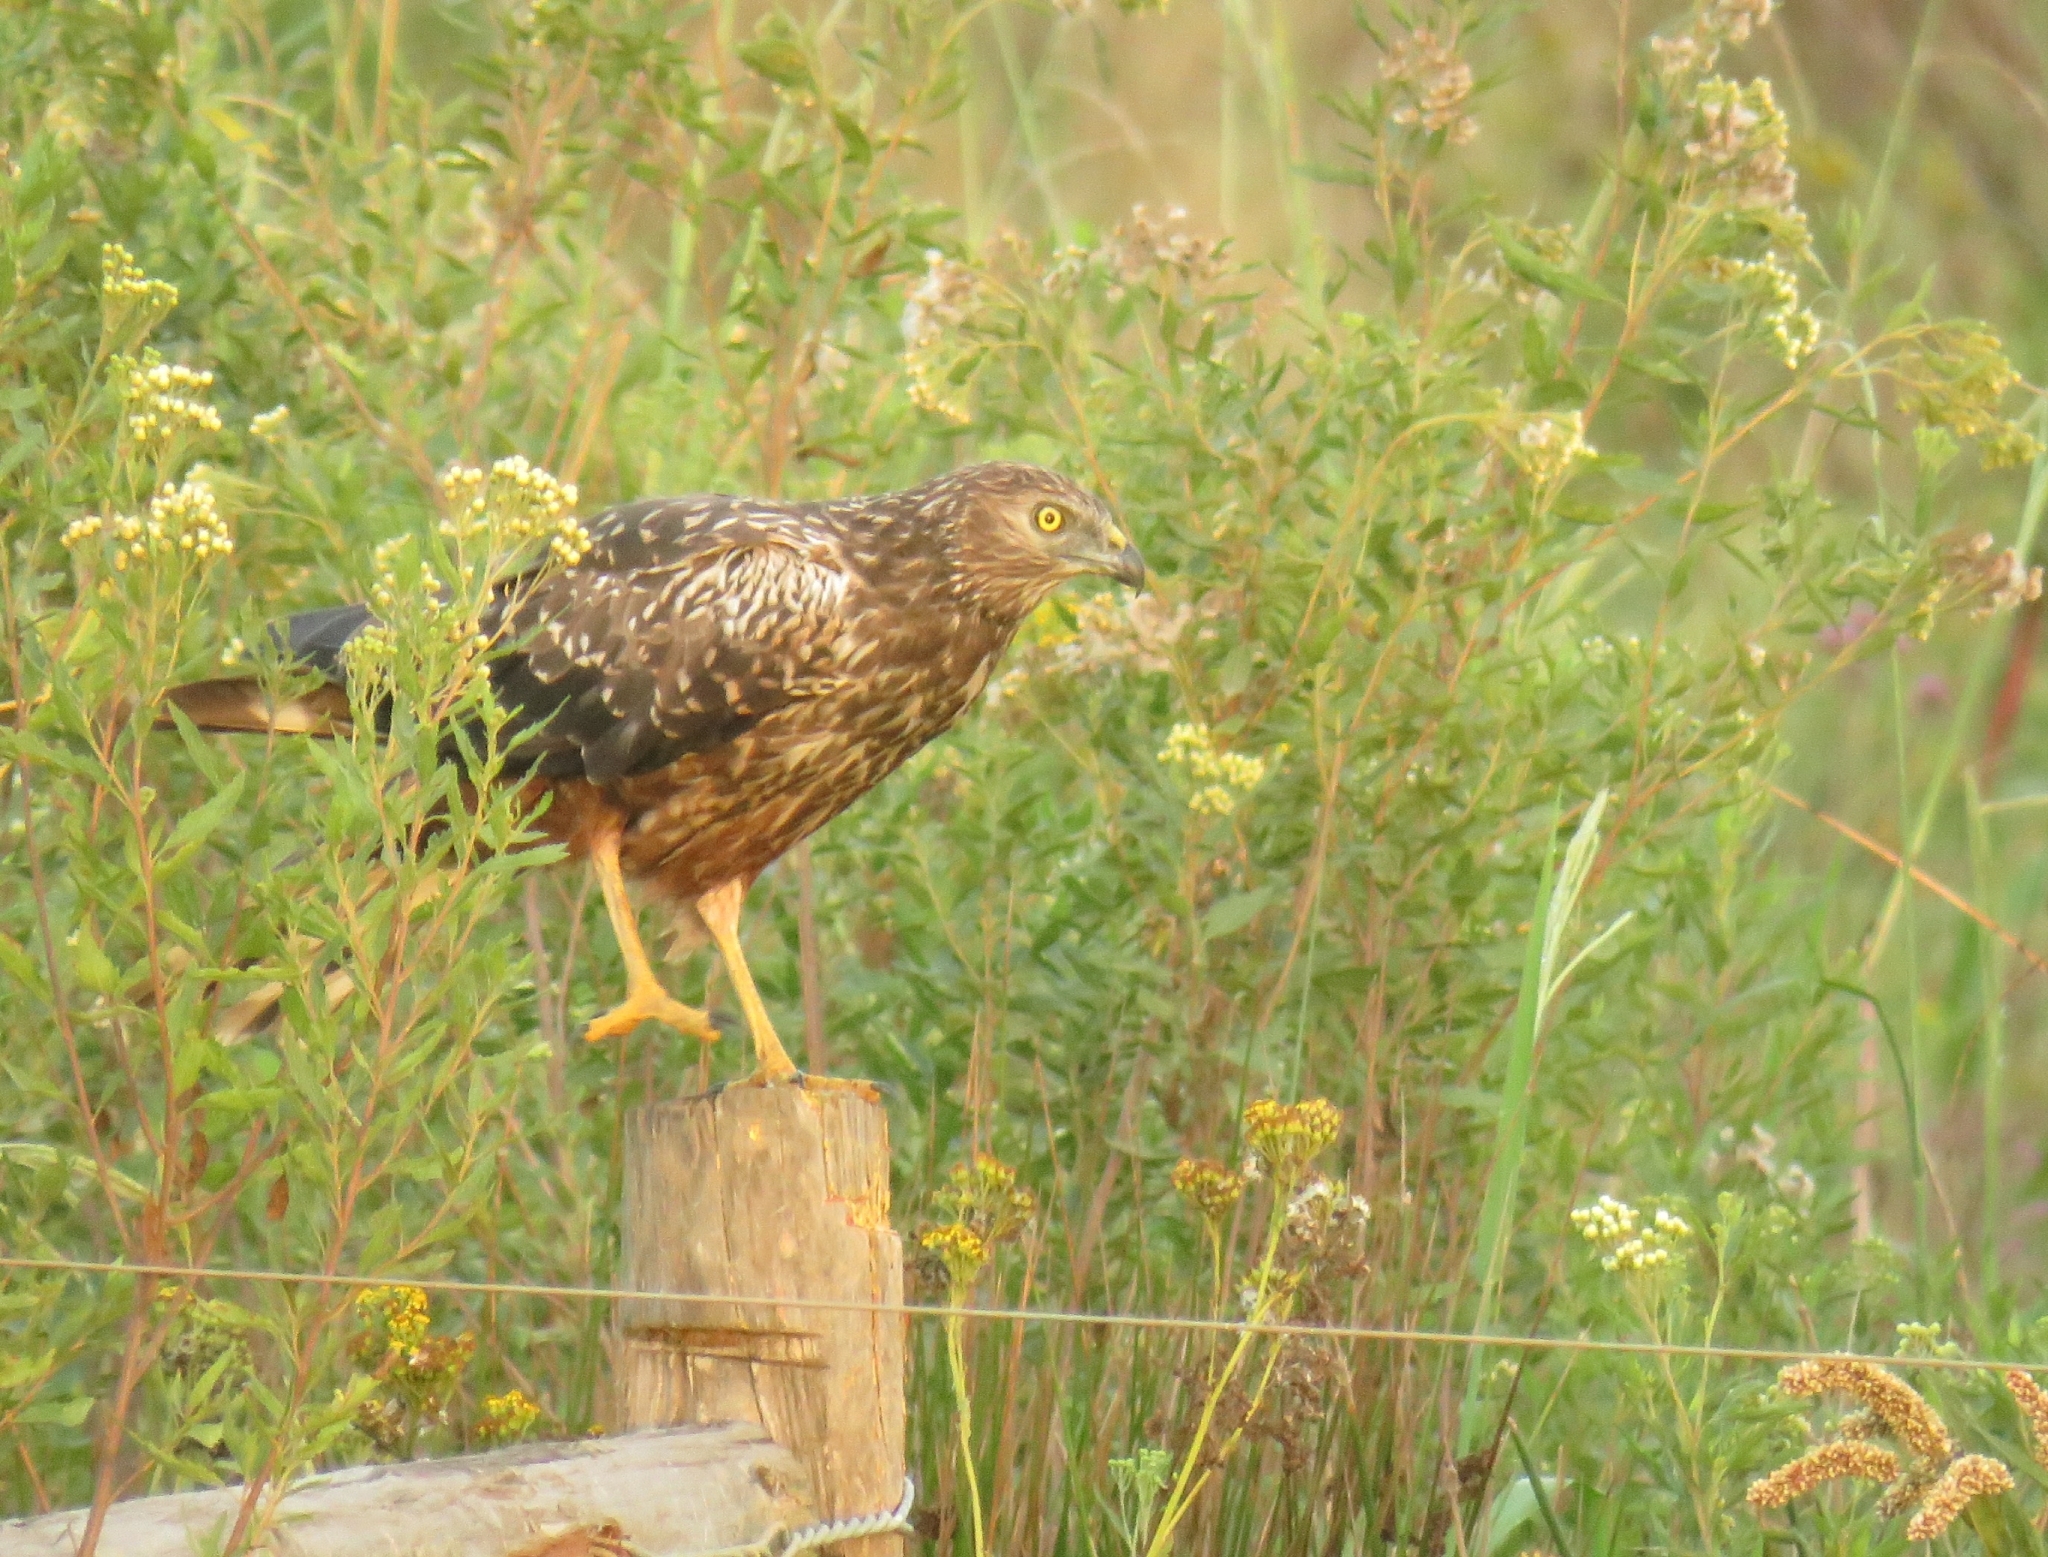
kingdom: Animalia
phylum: Chordata
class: Aves
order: Accipitriformes
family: Accipitridae
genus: Circus
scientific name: Circus ranivorus
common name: African marsh-harrier
